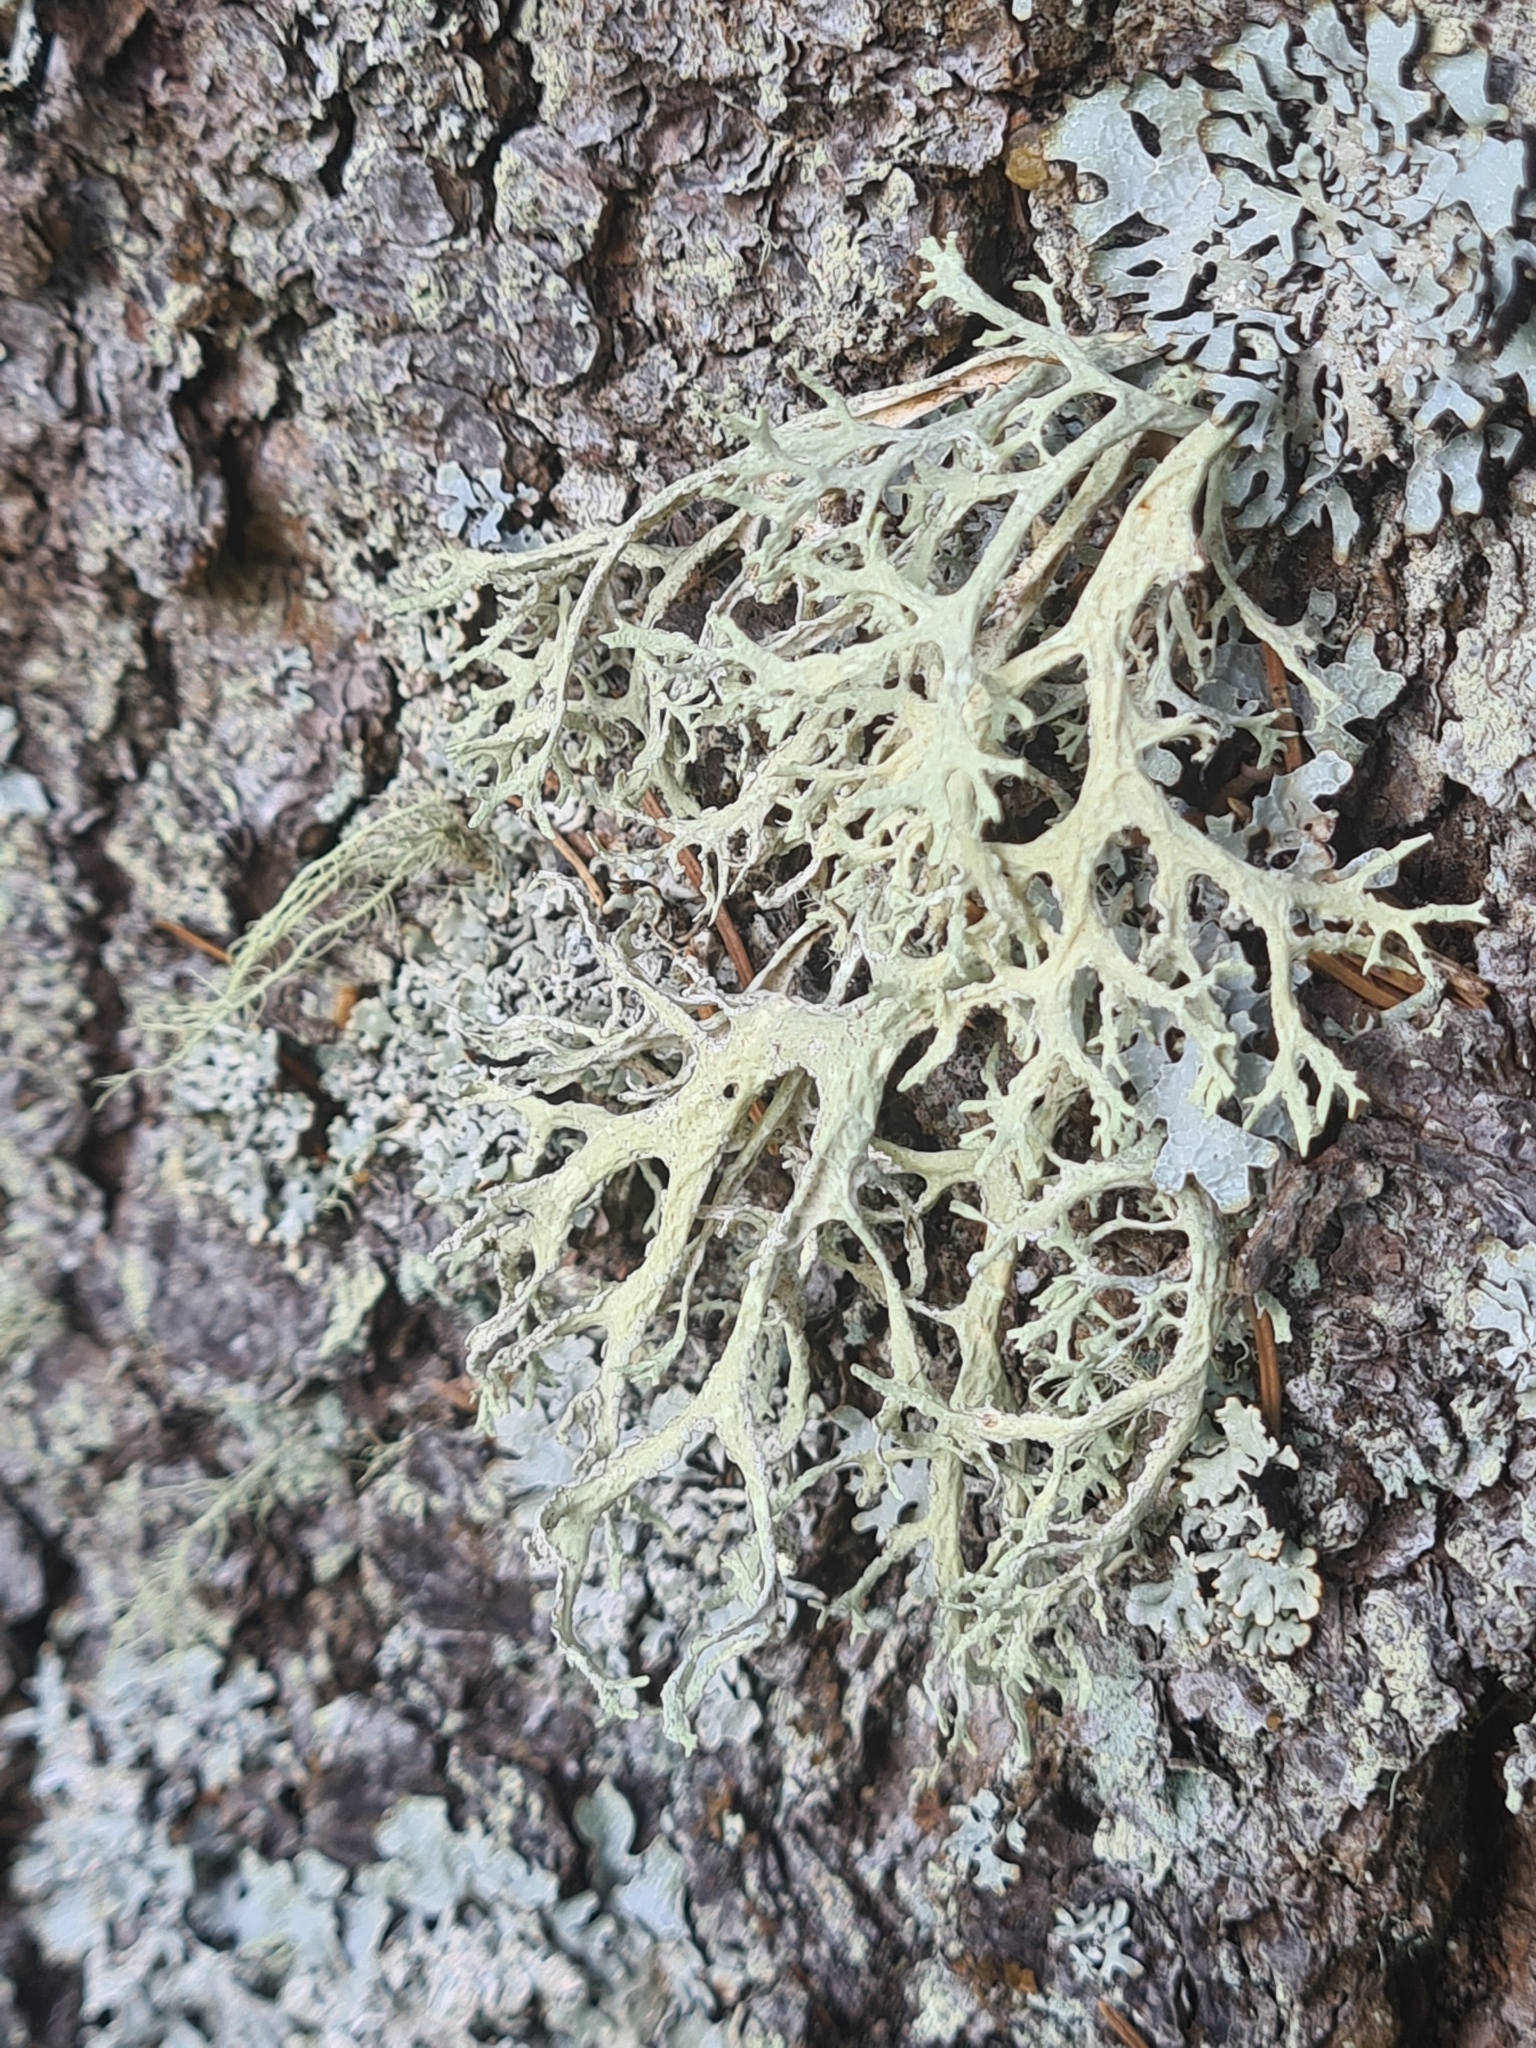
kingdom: Fungi
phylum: Ascomycota
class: Lecanoromycetes
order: Lecanorales
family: Parmeliaceae
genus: Evernia
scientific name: Evernia prunastri
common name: Oak moss
